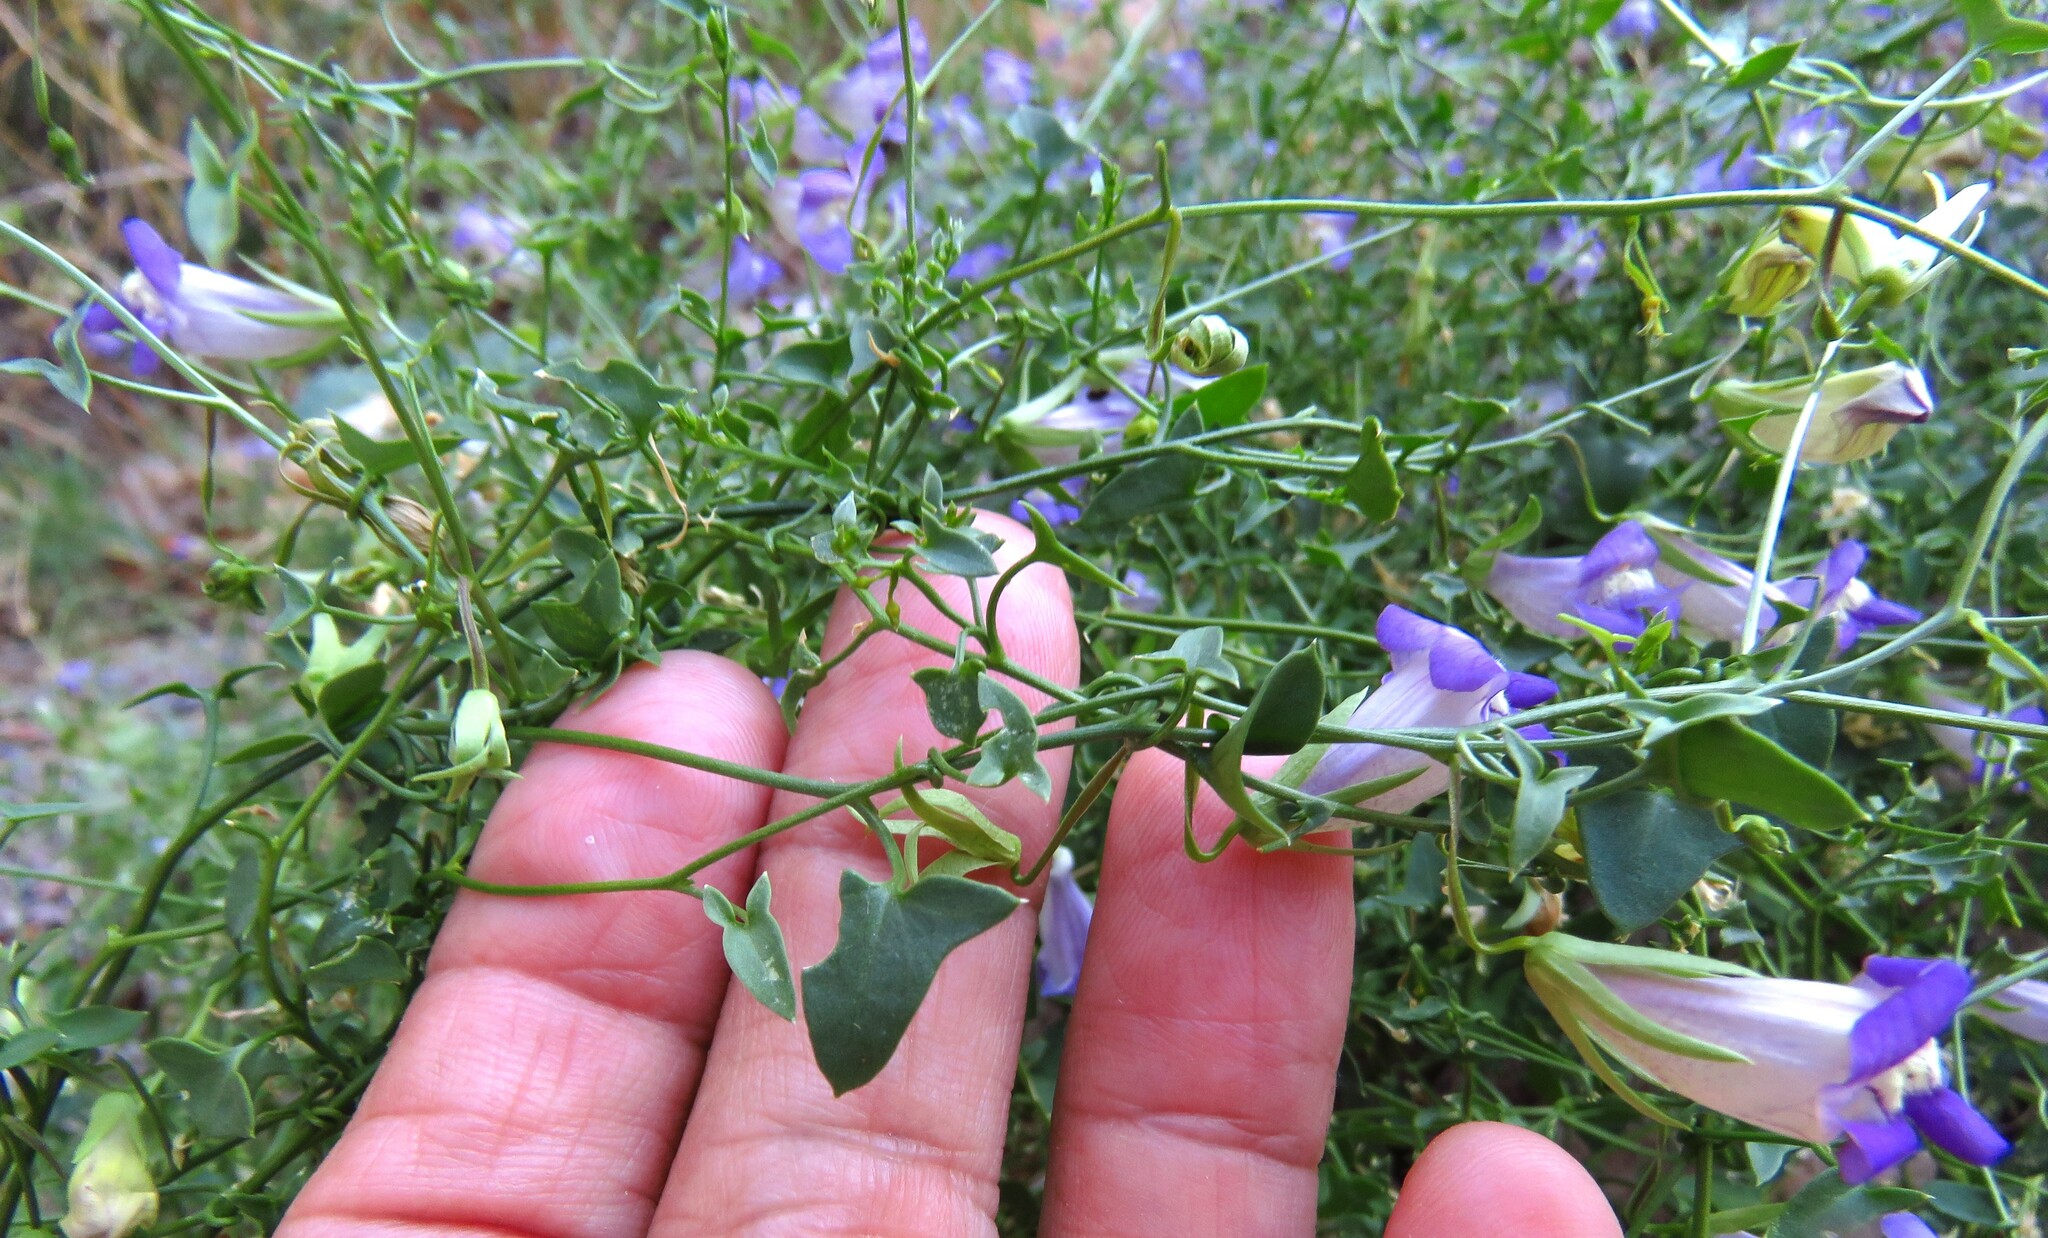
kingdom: Plantae
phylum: Tracheophyta
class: Magnoliopsida
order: Lamiales
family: Plantaginaceae
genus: Maurandella
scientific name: Maurandella antirrhiniflora
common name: Violet twining-snapdragon
